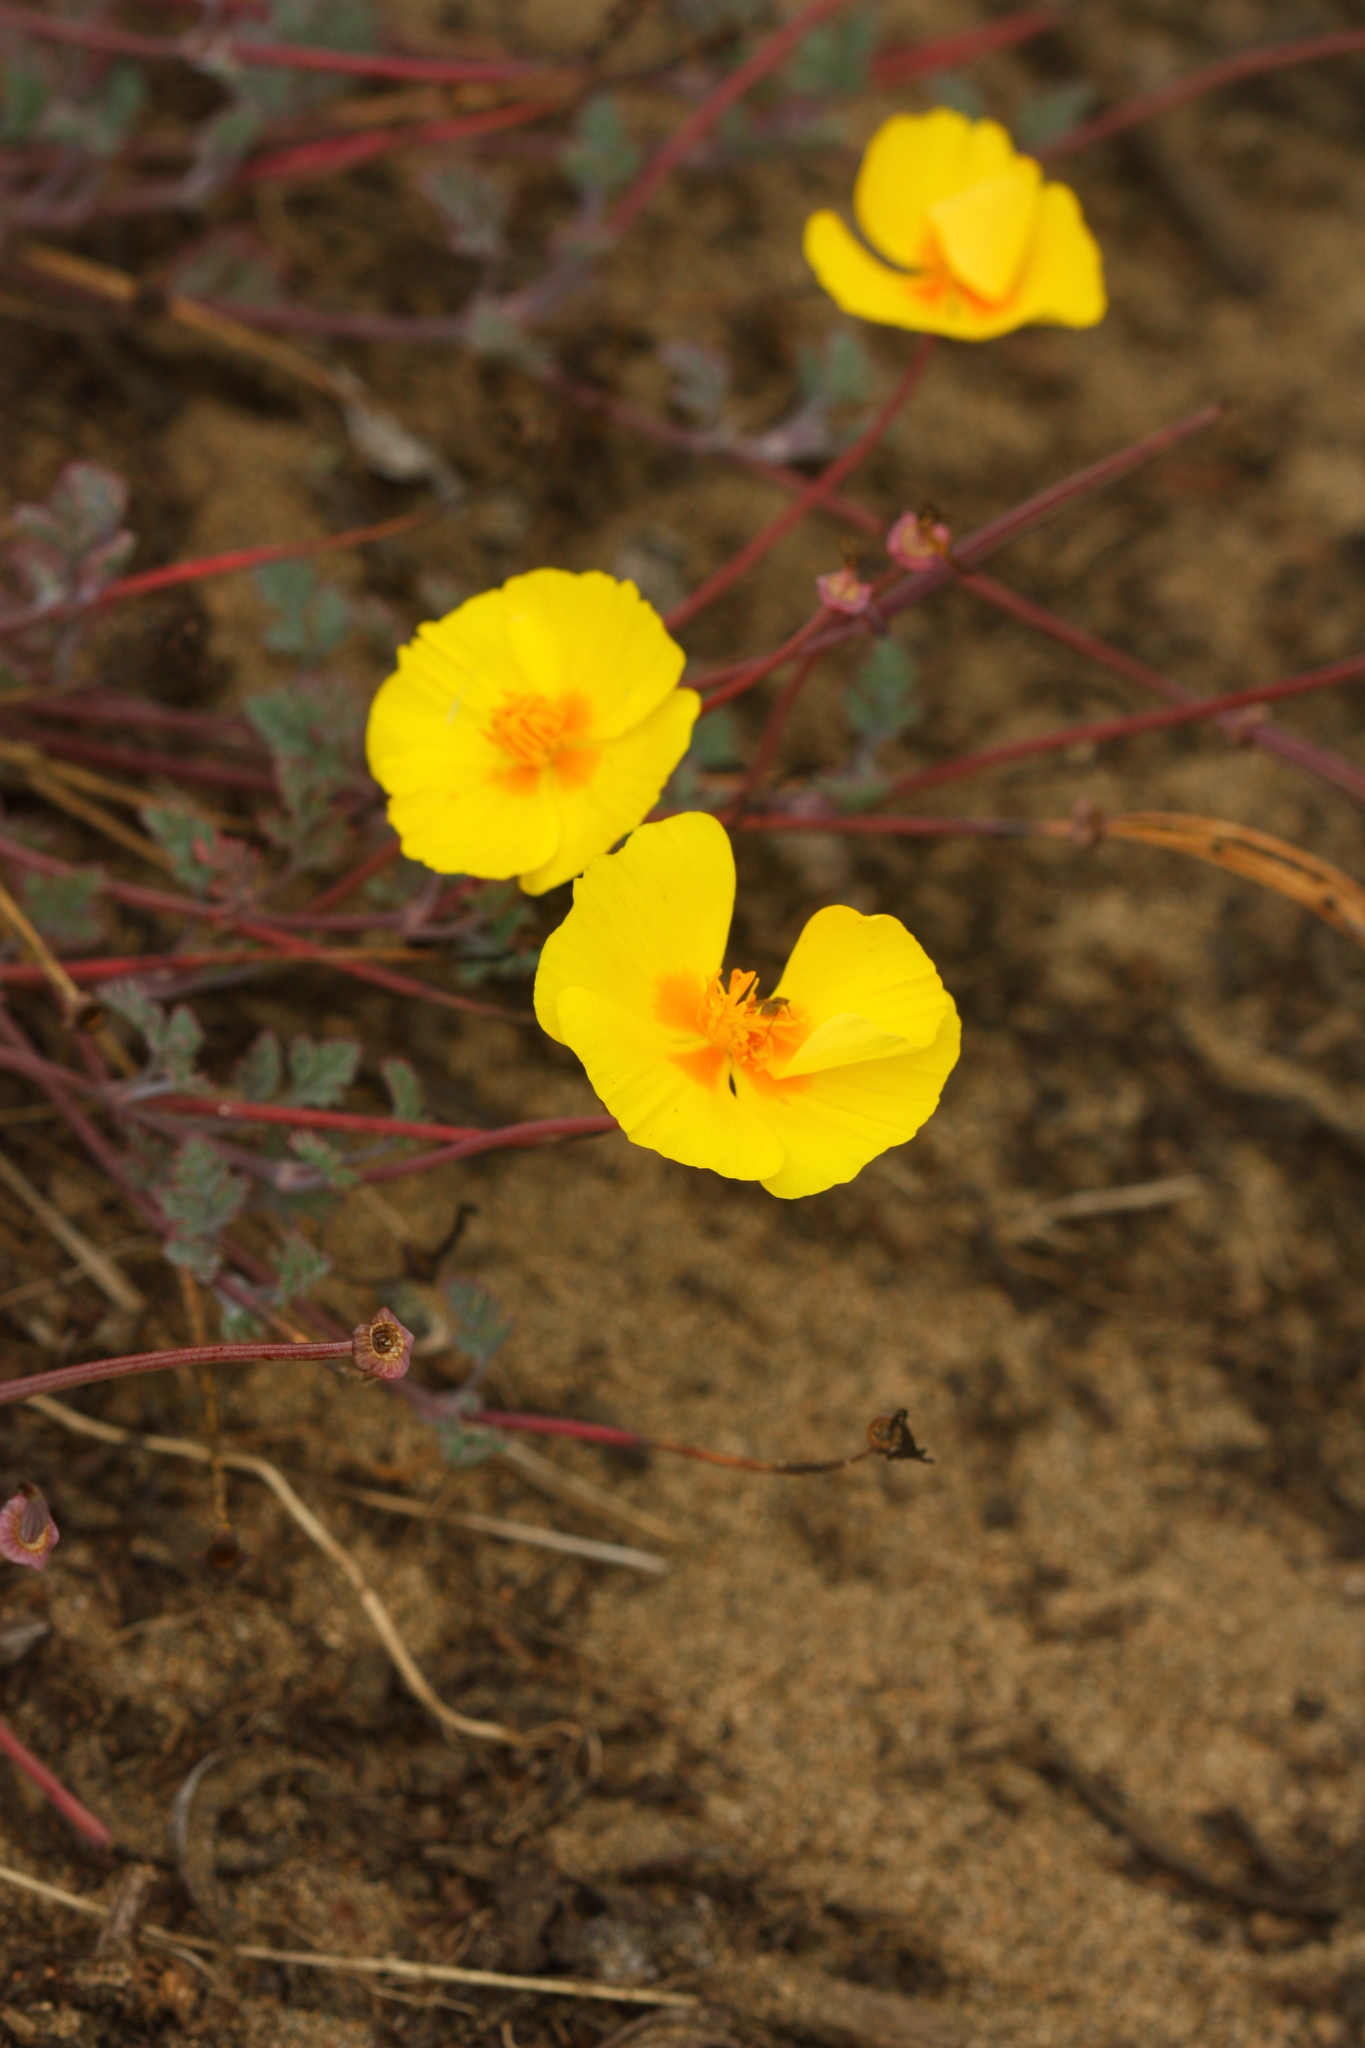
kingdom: Plantae
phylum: Tracheophyta
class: Magnoliopsida
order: Ranunculales
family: Papaveraceae
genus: Eschscholzia
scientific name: Eschscholzia californica
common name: California poppy
